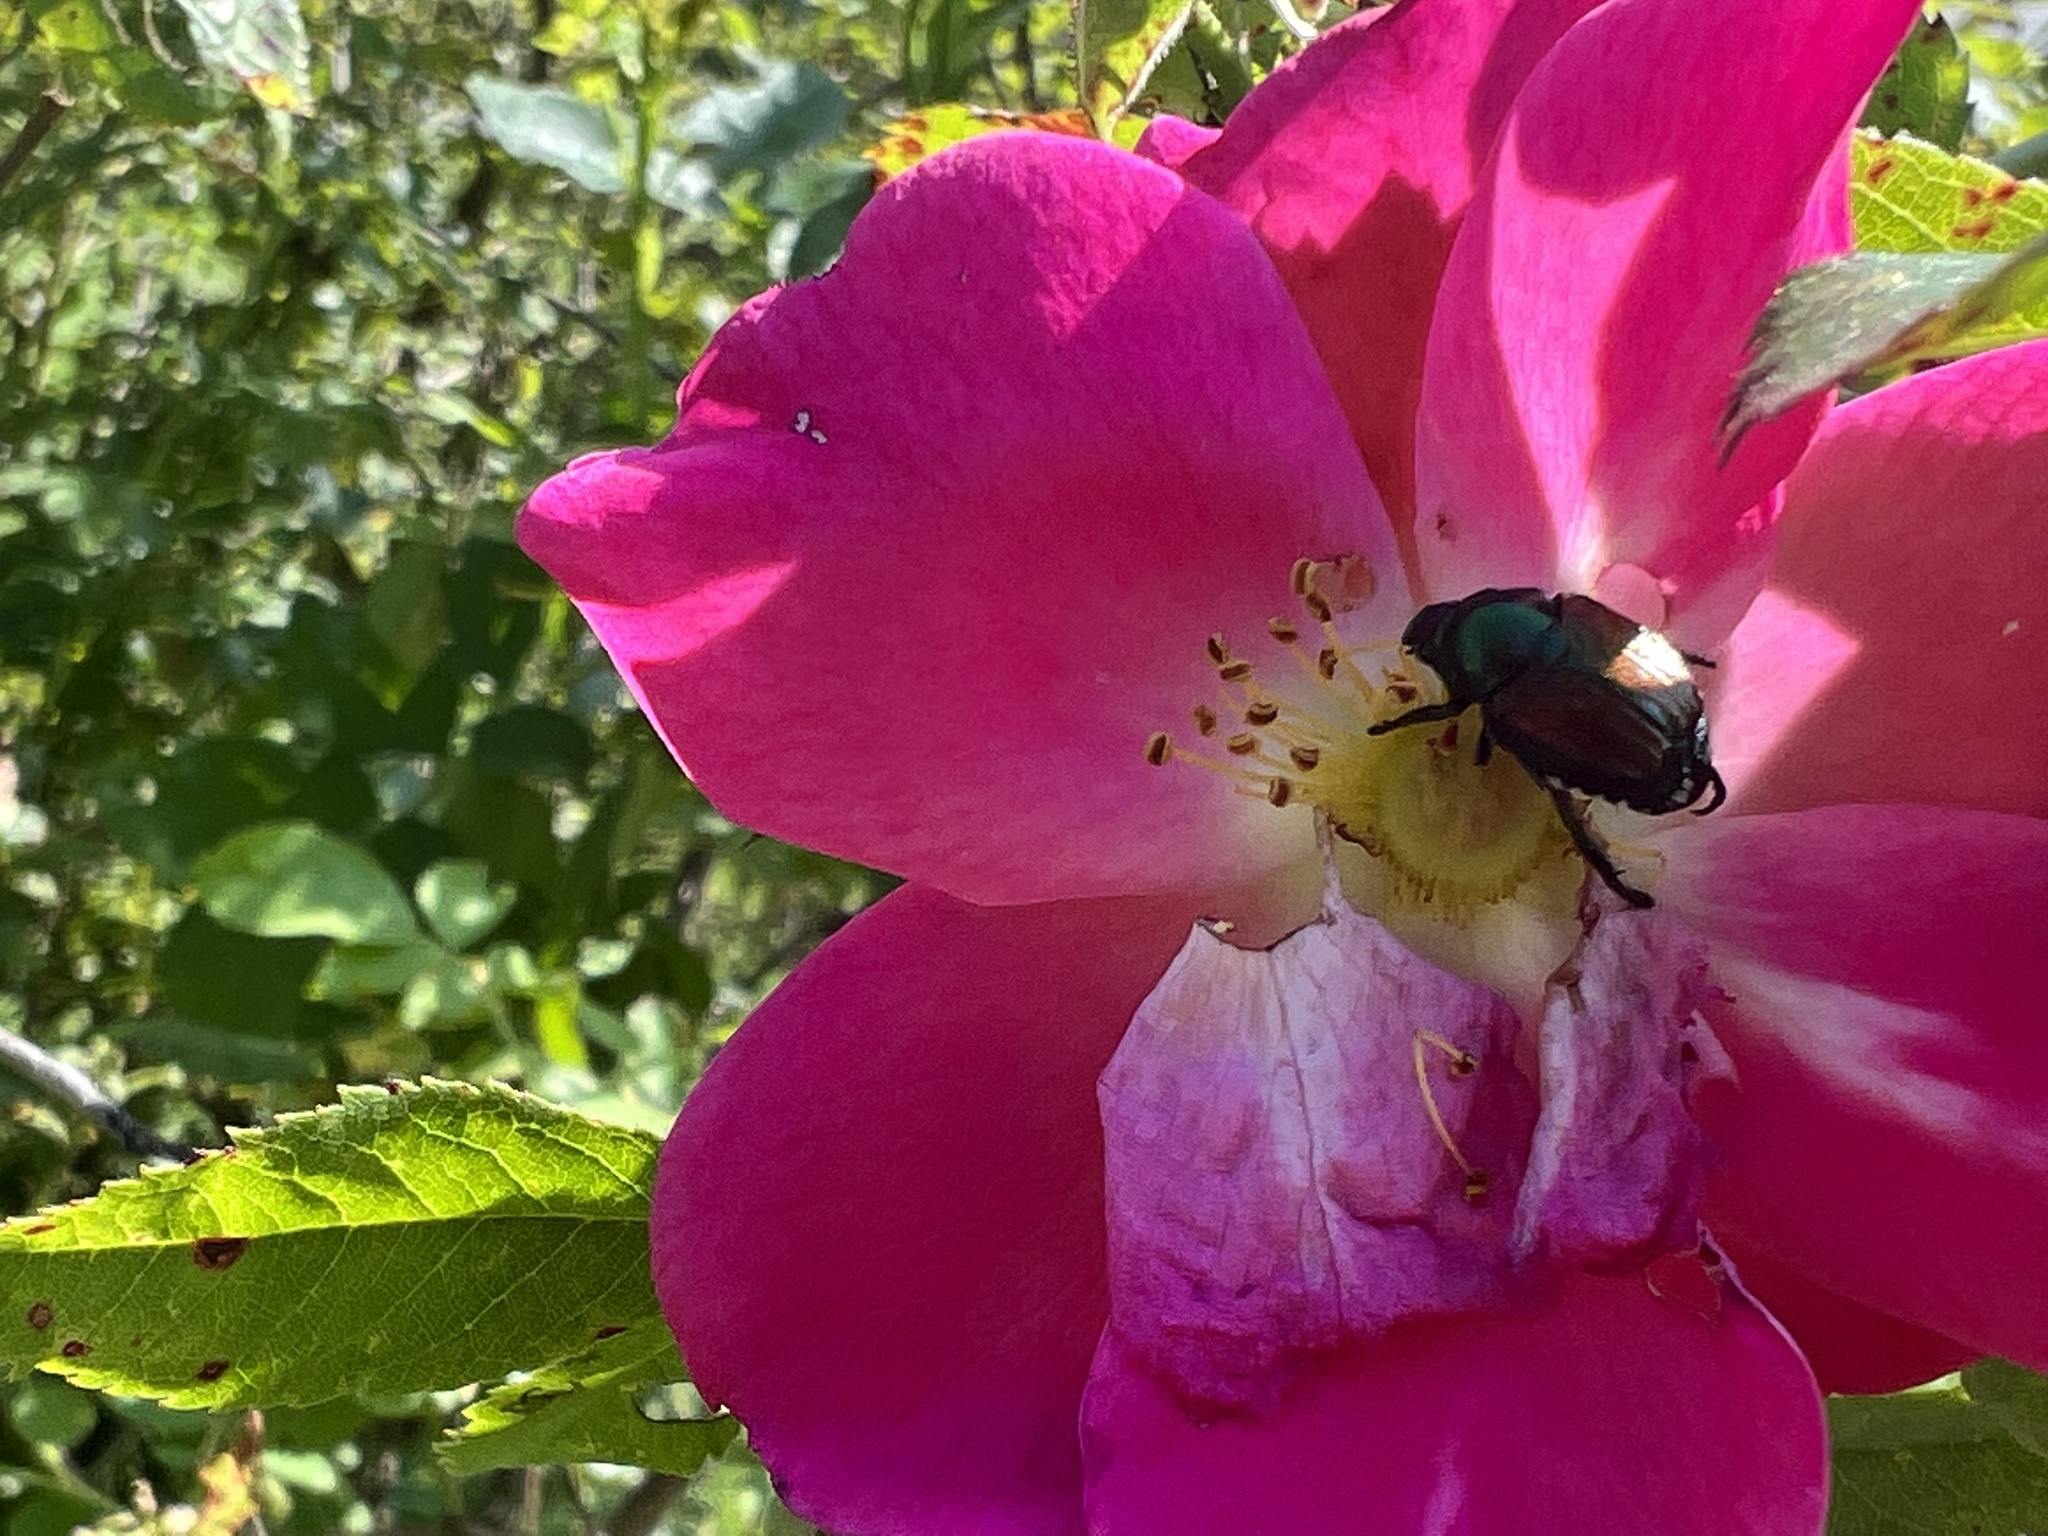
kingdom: Animalia
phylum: Arthropoda
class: Insecta
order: Coleoptera
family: Scarabaeidae
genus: Popillia
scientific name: Popillia japonica
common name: Japanese beetle
